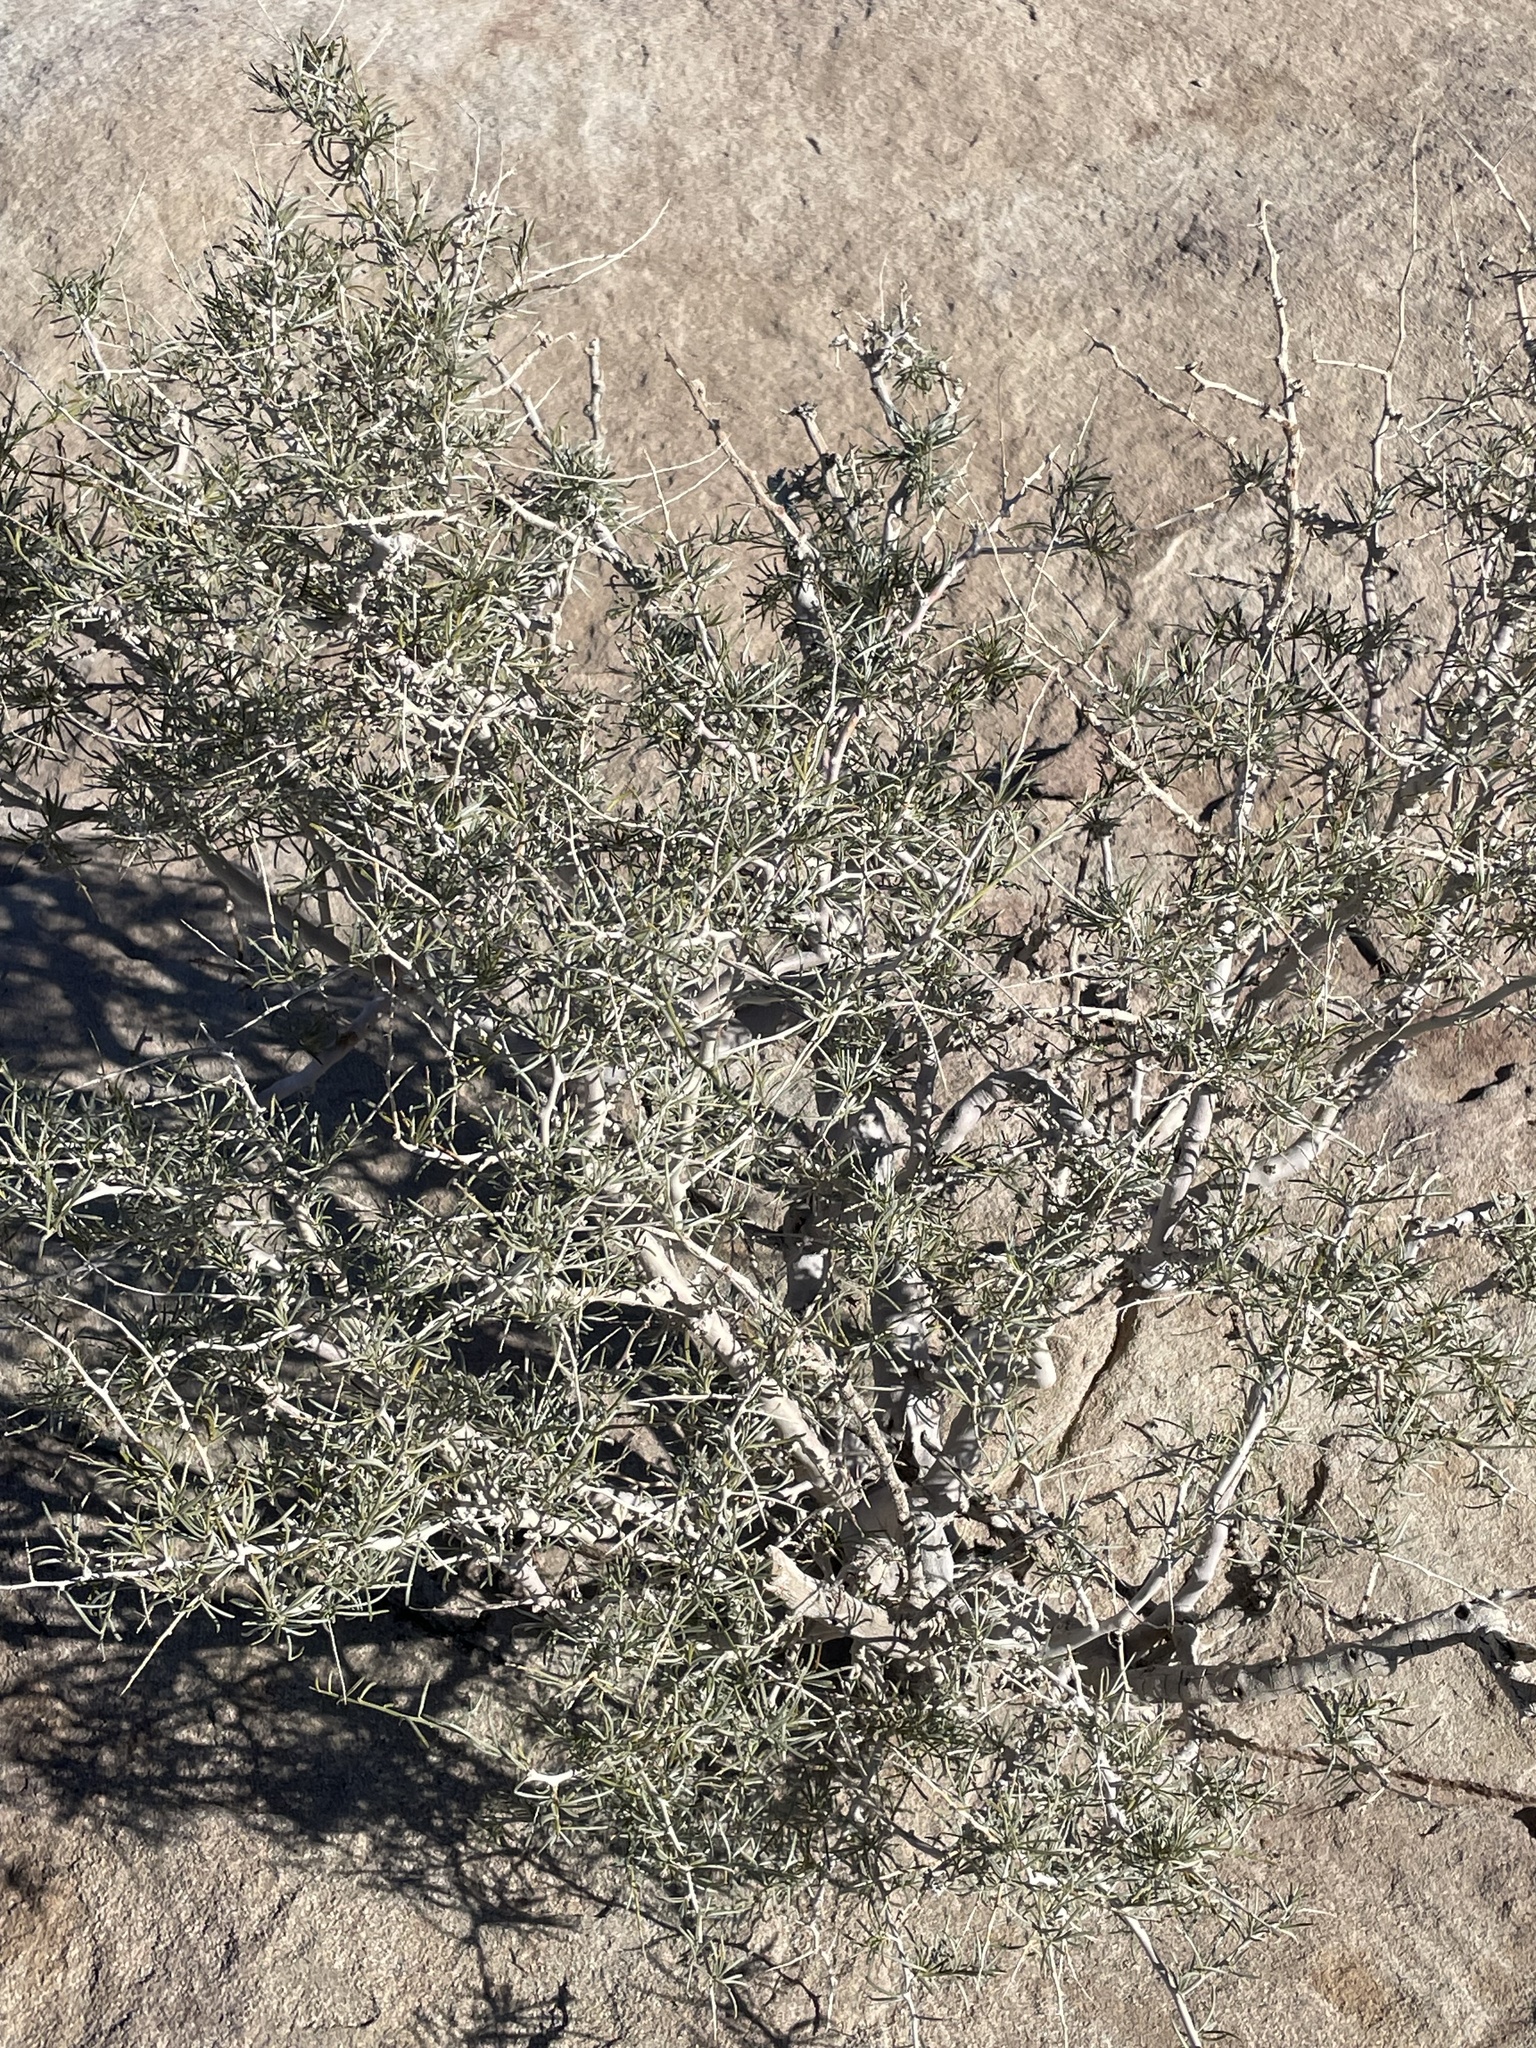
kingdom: Plantae
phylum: Tracheophyta
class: Magnoliopsida
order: Fabales
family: Fabaceae
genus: Psorothamnus
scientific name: Psorothamnus schottii
